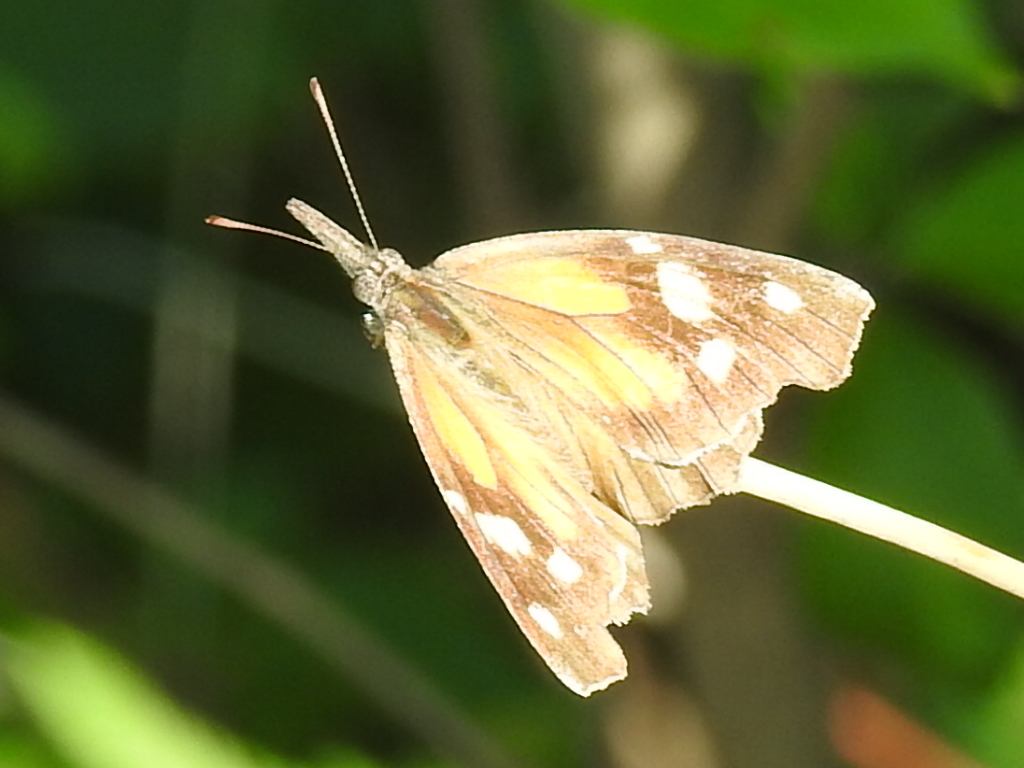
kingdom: Animalia
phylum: Arthropoda
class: Insecta
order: Lepidoptera
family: Nymphalidae
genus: Libytheana
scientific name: Libytheana carinenta
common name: American snout
